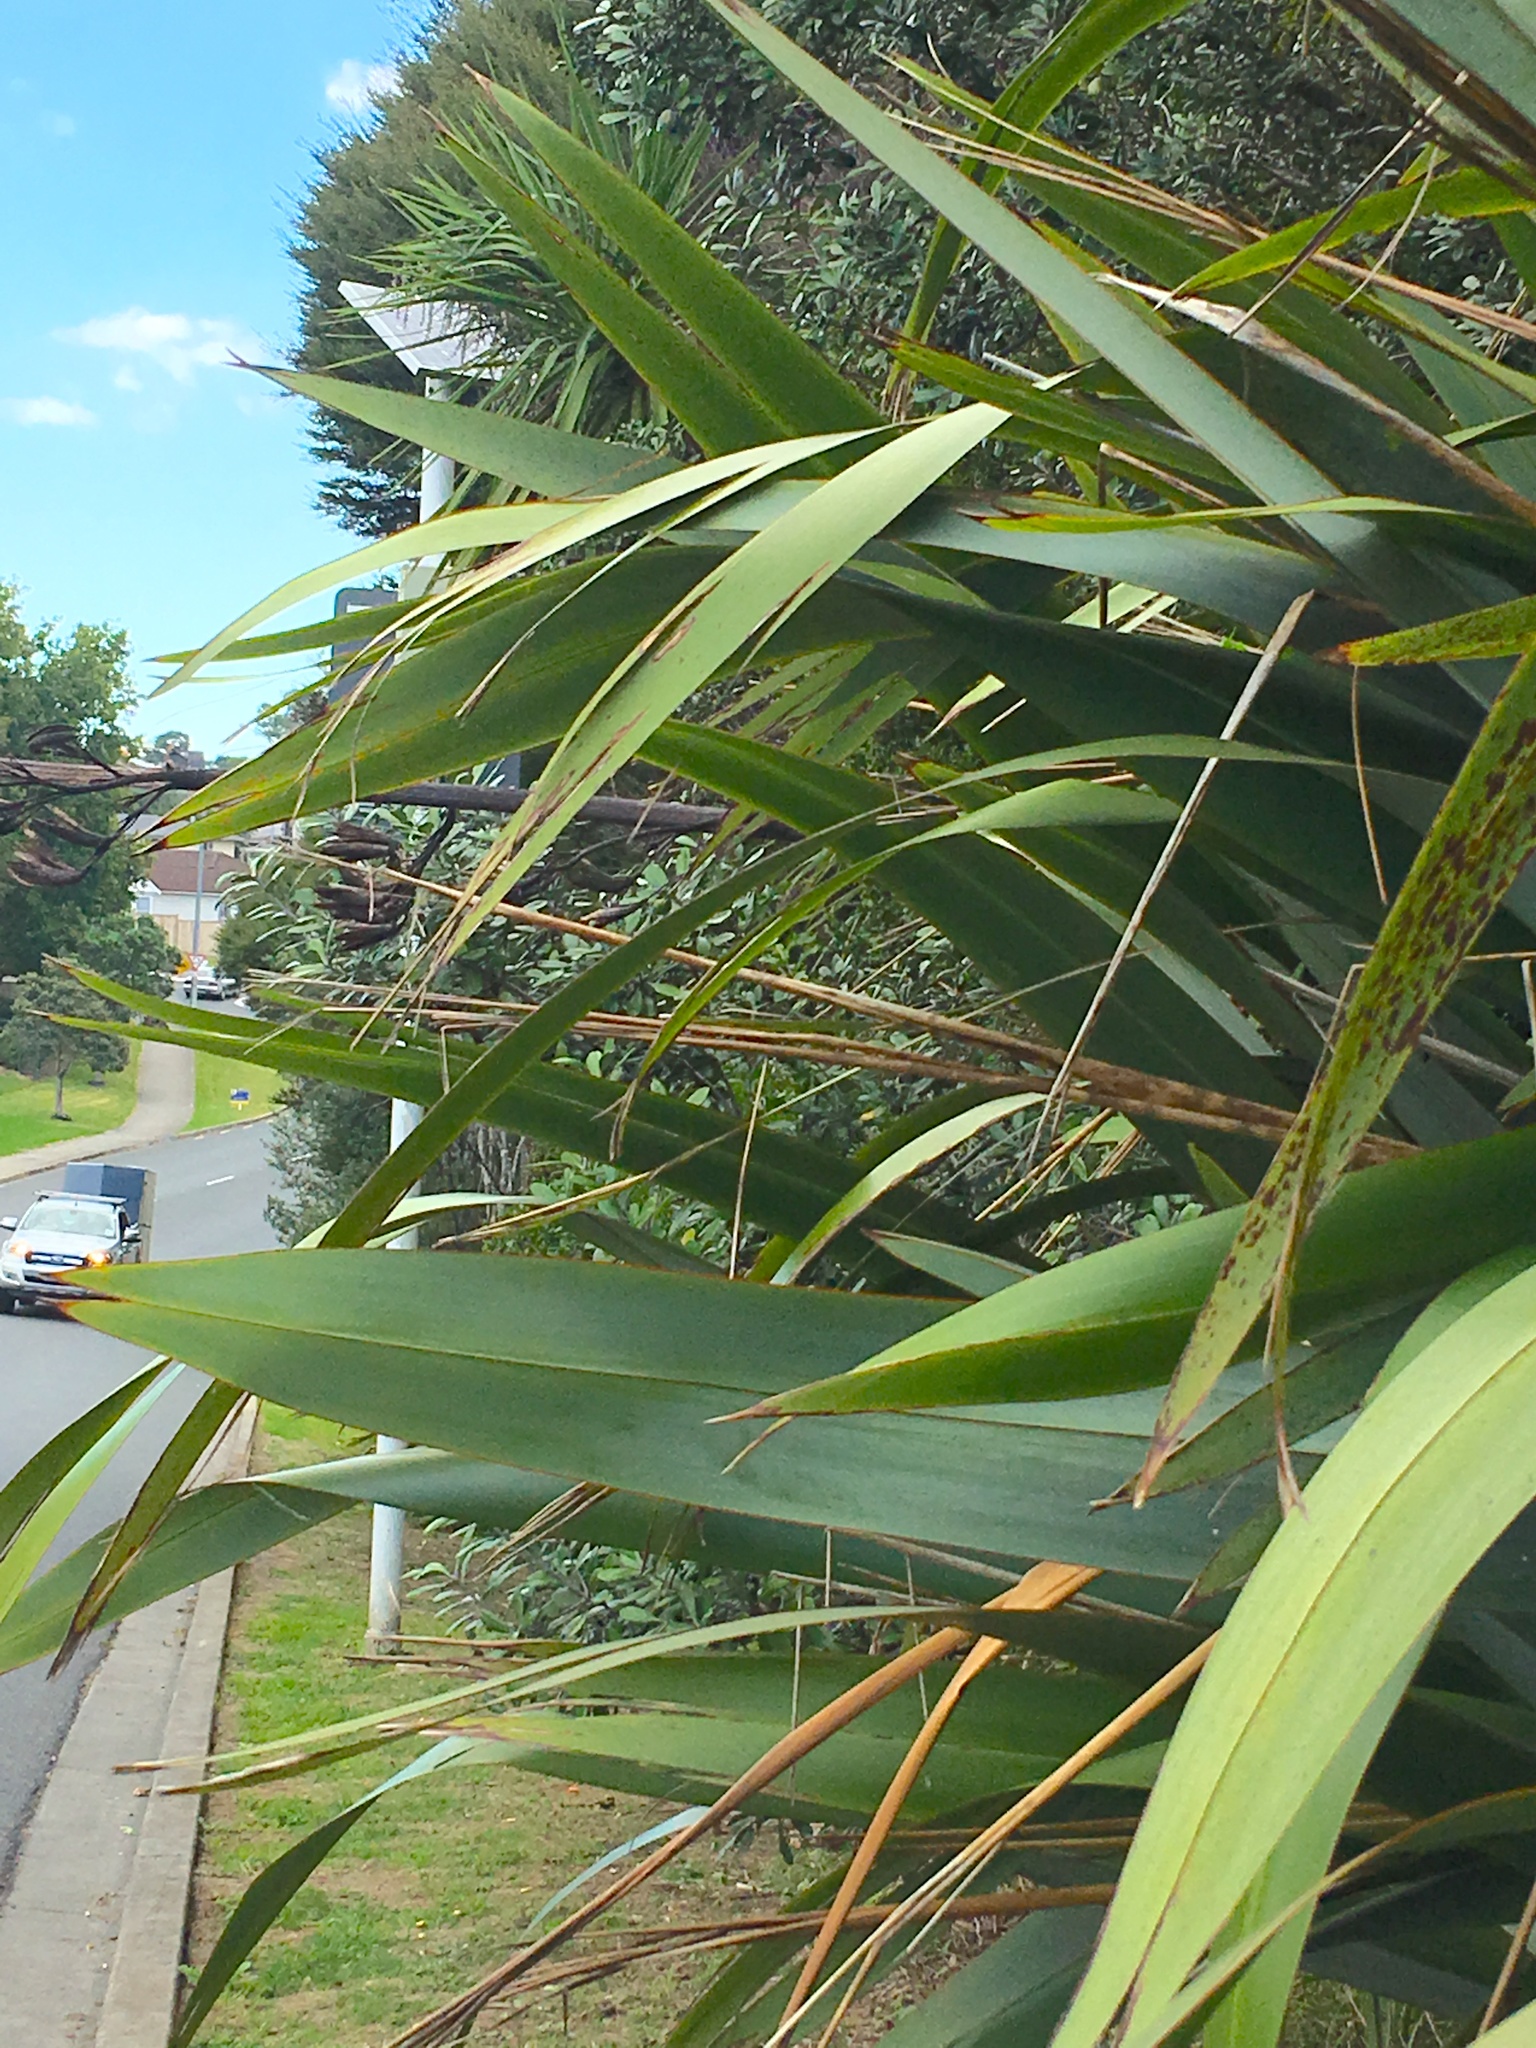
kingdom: Plantae
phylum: Tracheophyta
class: Liliopsida
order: Asparagales
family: Asphodelaceae
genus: Phormium
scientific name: Phormium tenax
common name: New zealand flax
